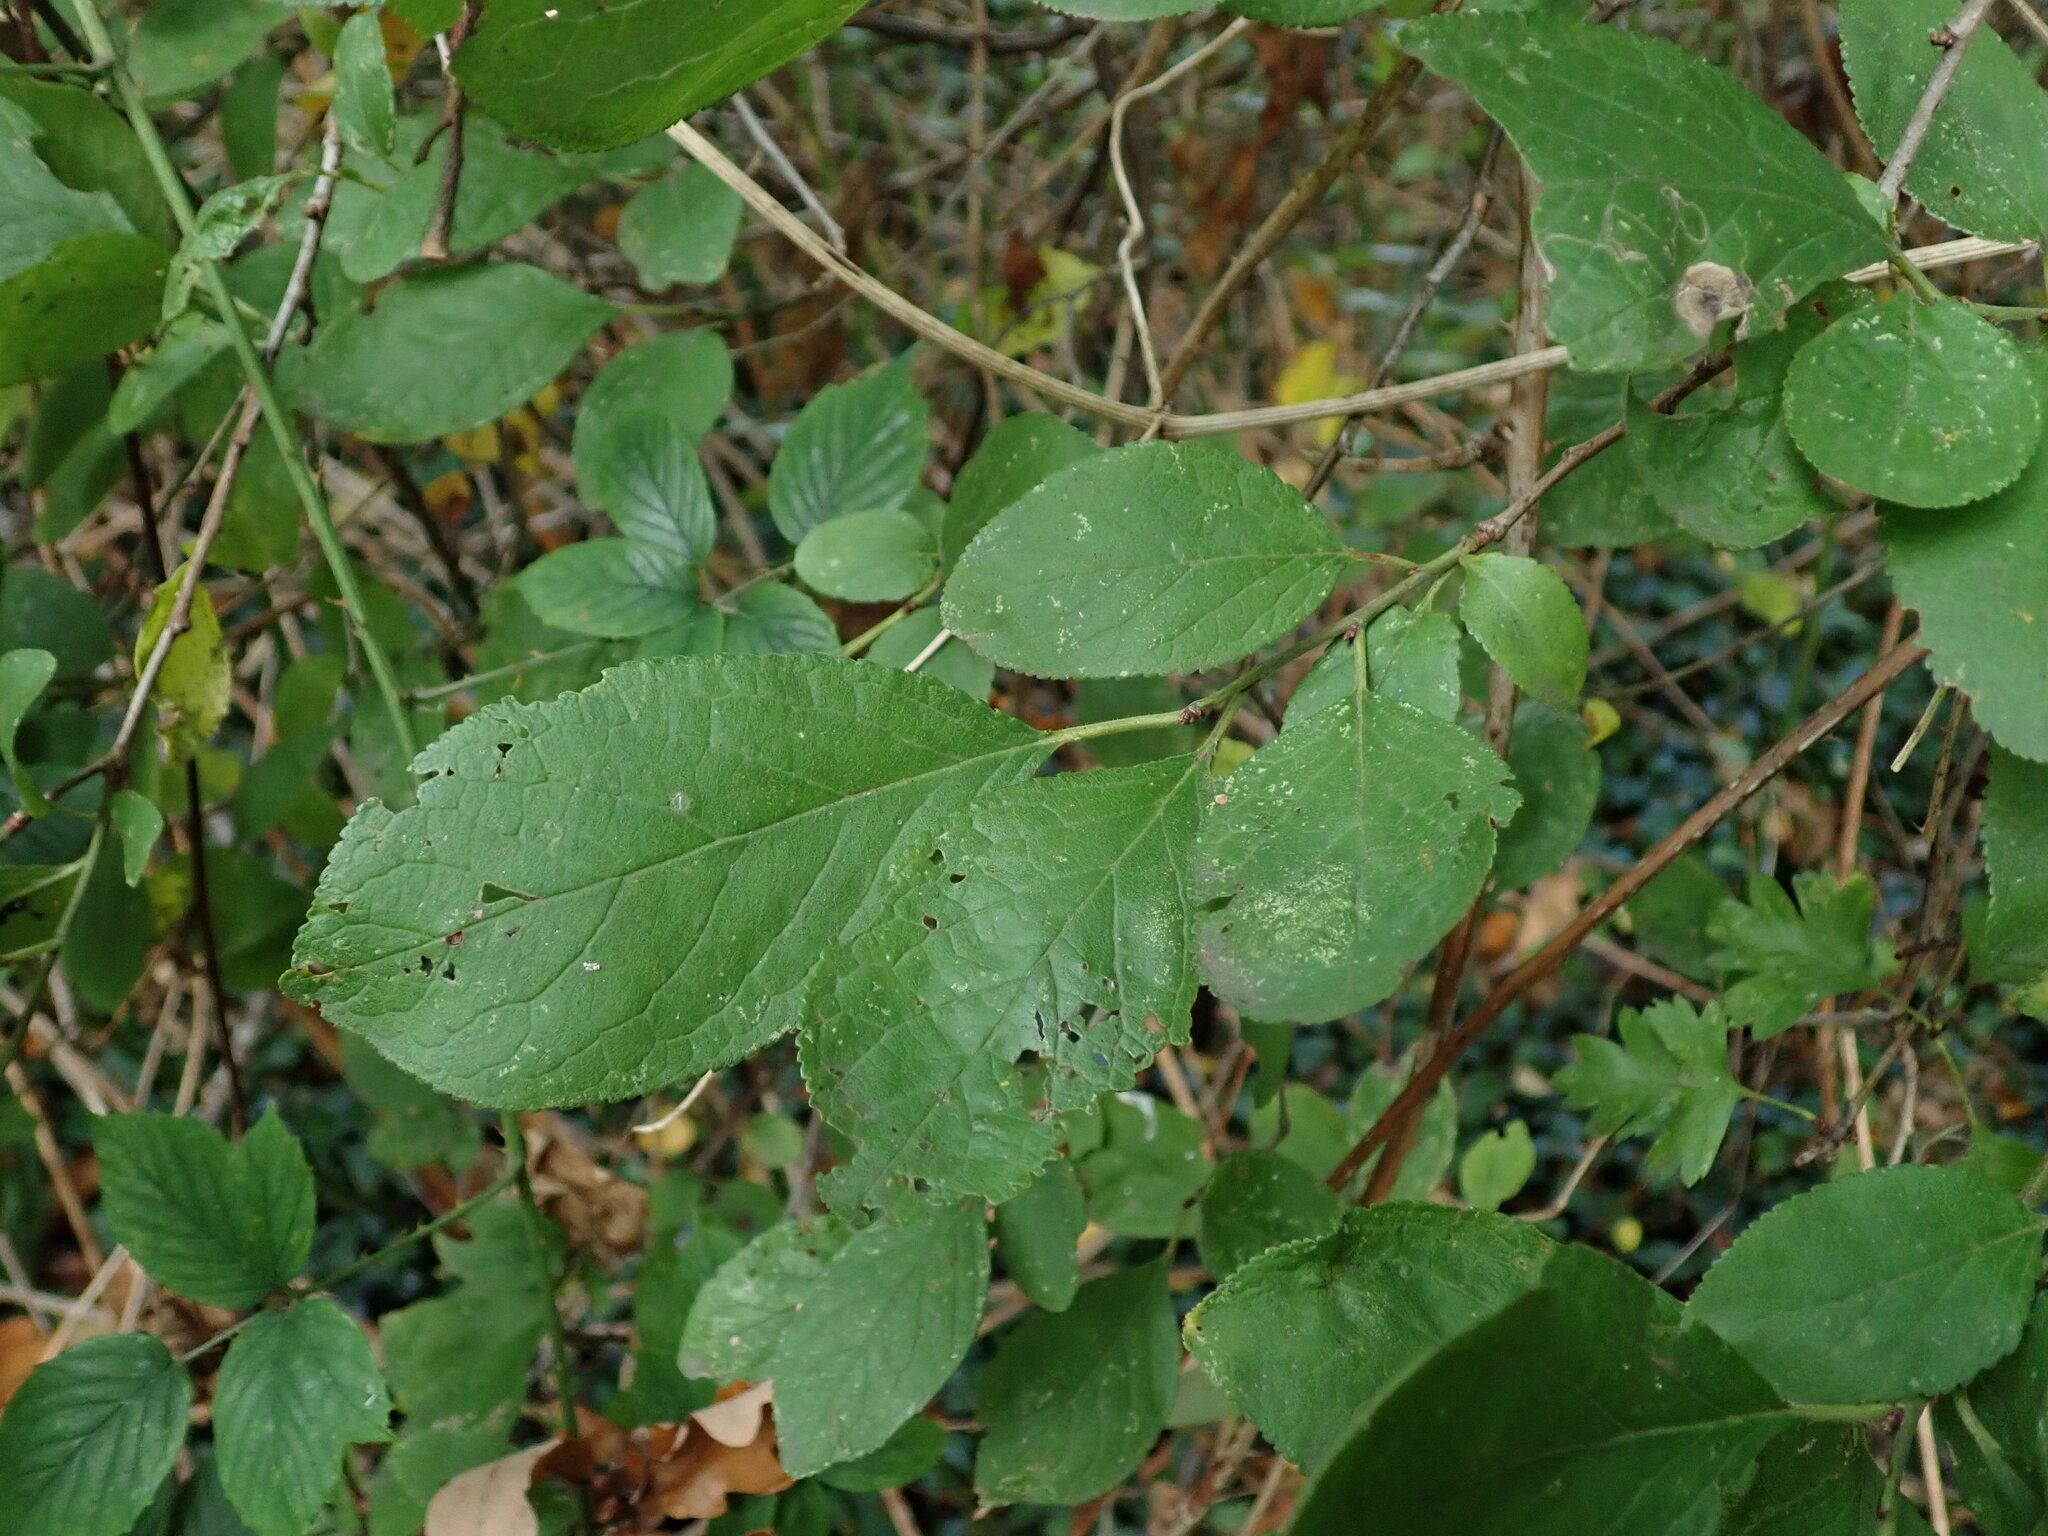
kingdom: Plantae
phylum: Tracheophyta
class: Magnoliopsida
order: Rosales
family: Rosaceae
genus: Prunus
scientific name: Prunus padus
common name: Bird cherry
